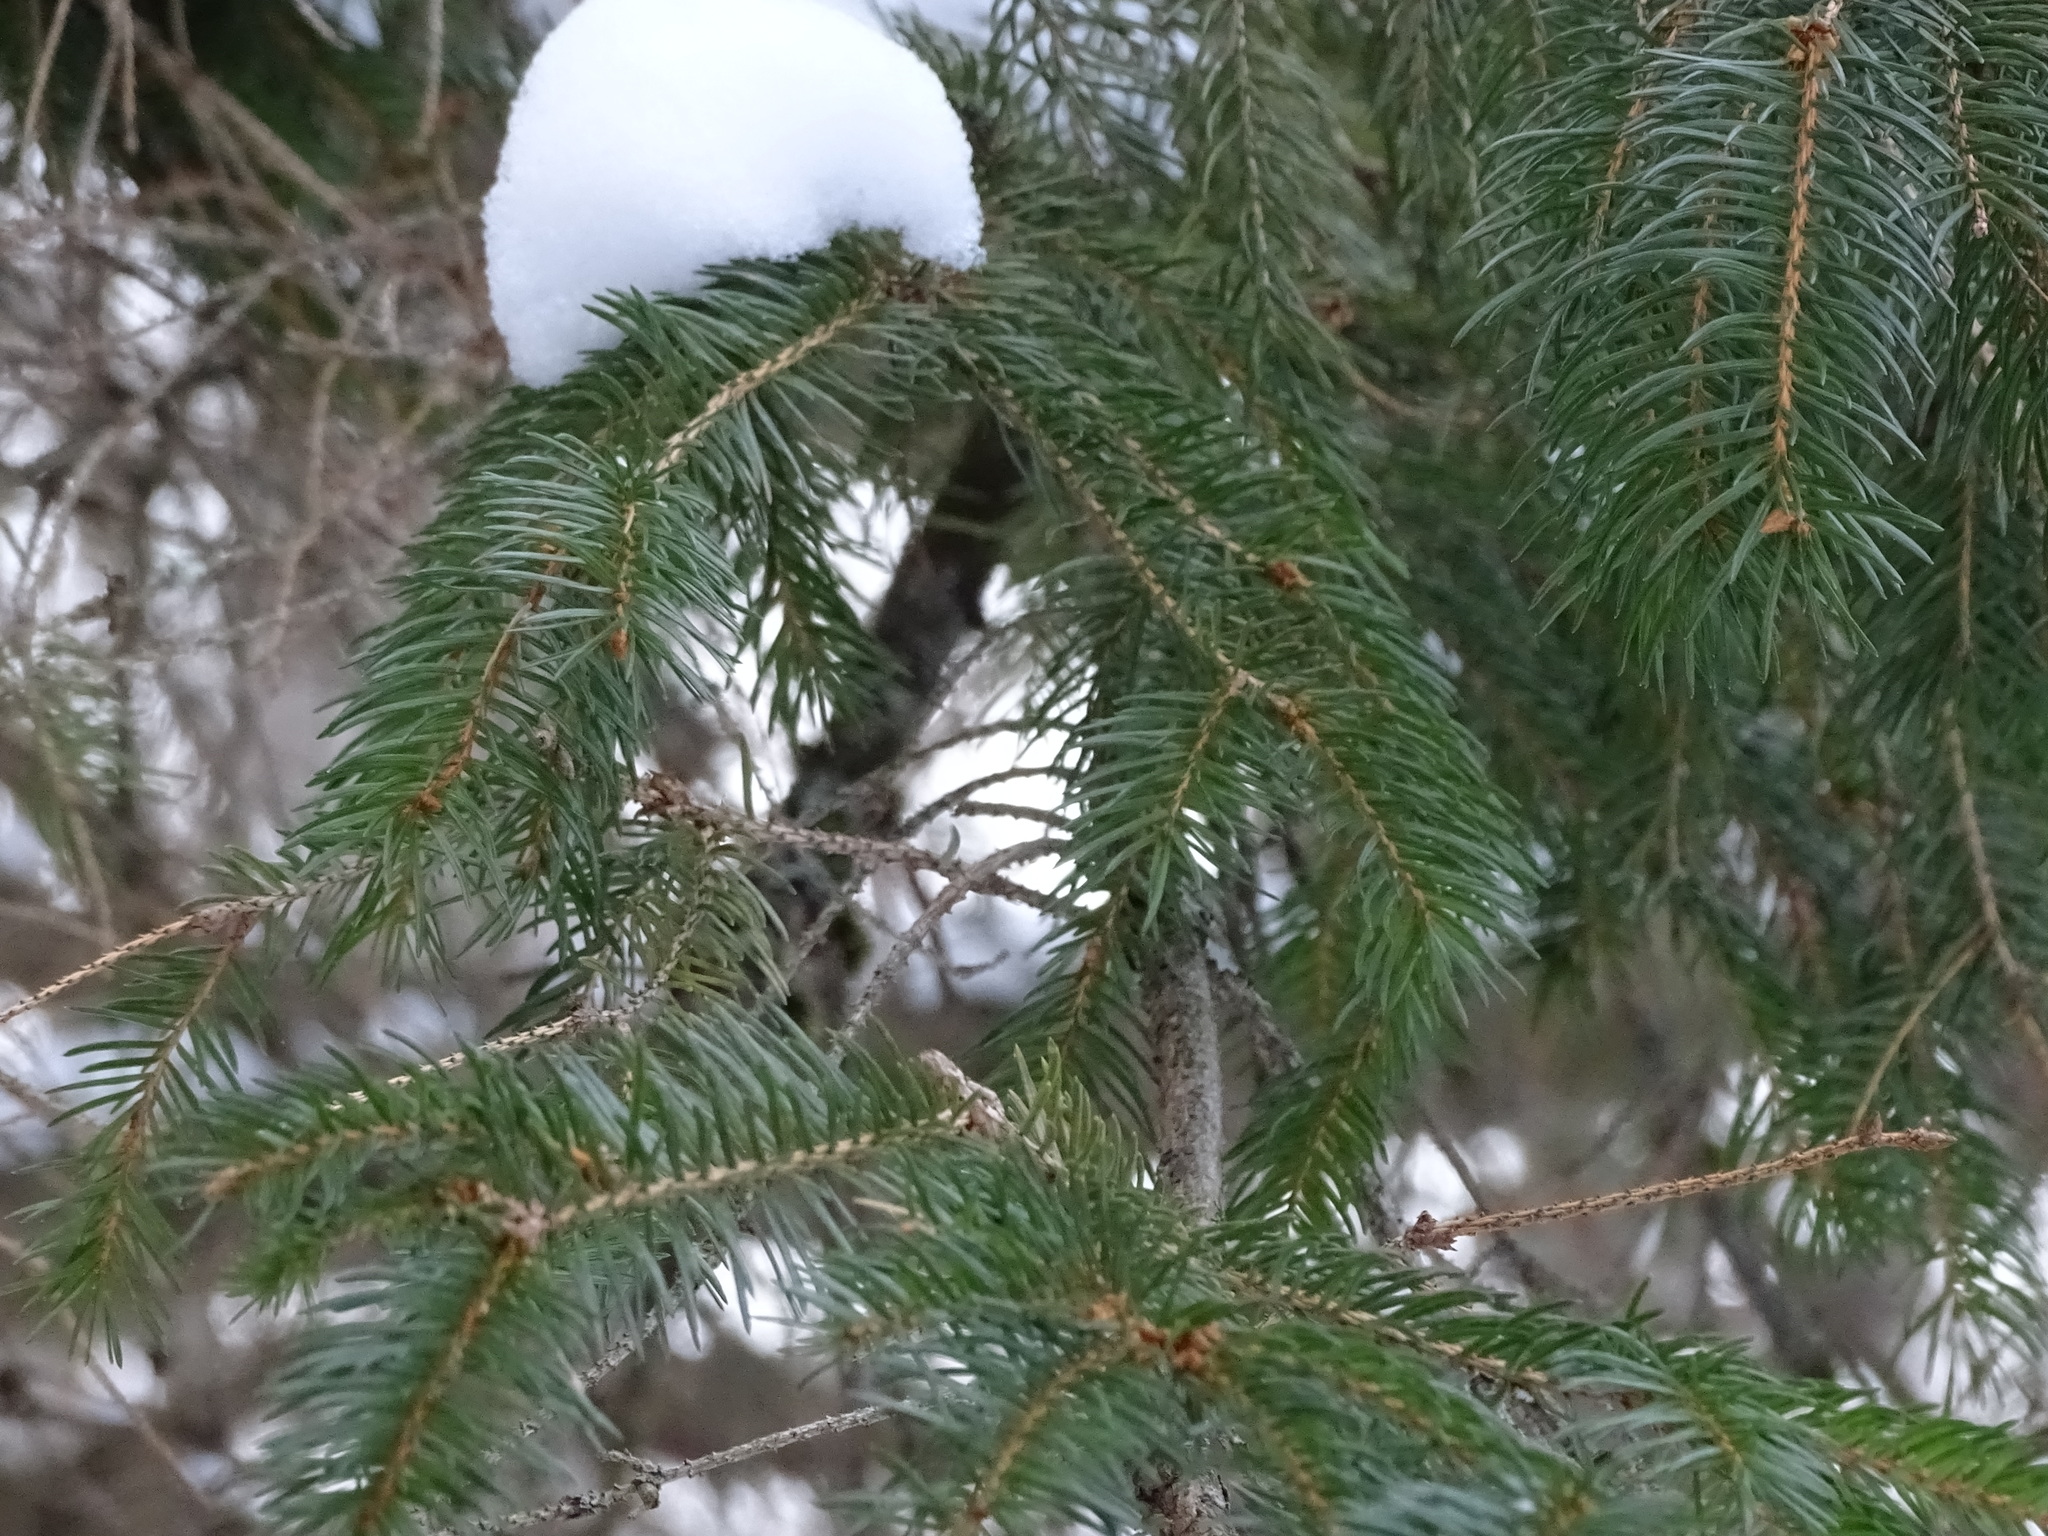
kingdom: Plantae
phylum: Tracheophyta
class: Pinopsida
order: Pinales
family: Pinaceae
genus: Picea
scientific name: Picea rubens
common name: Red spruce
